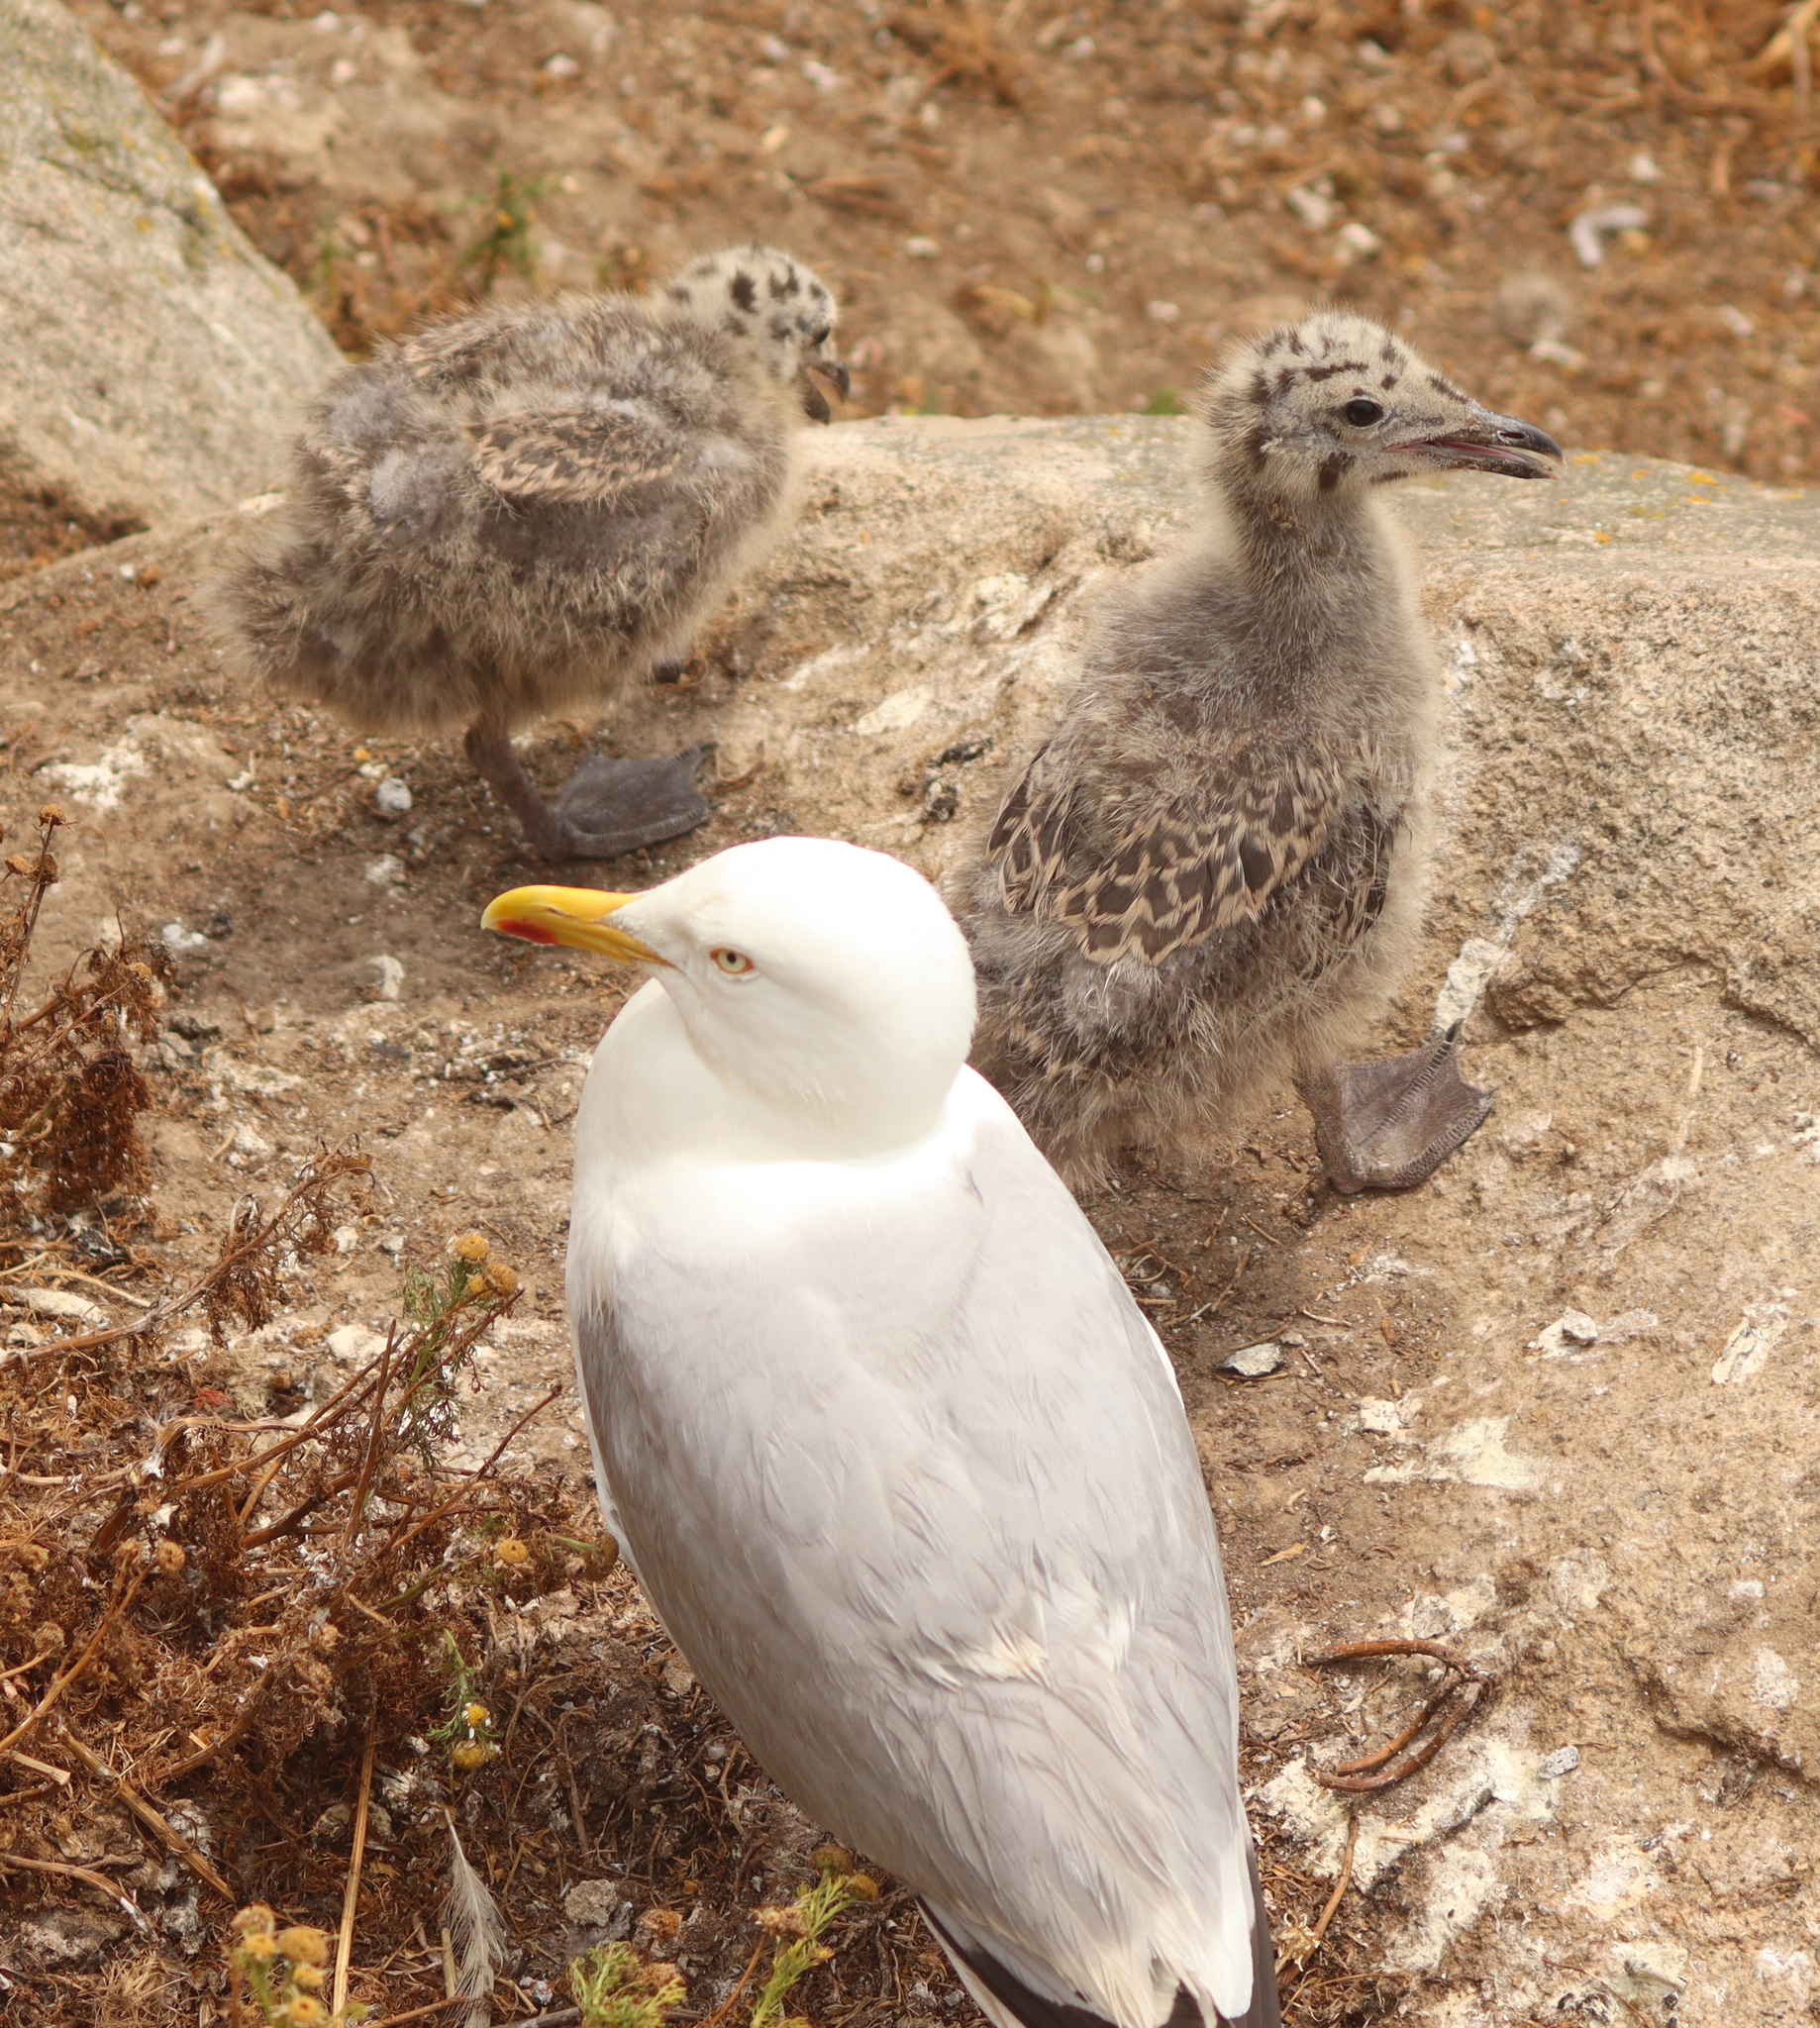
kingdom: Animalia
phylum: Chordata
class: Aves
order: Charadriiformes
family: Laridae
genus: Larus
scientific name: Larus argentatus
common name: Herring gull
